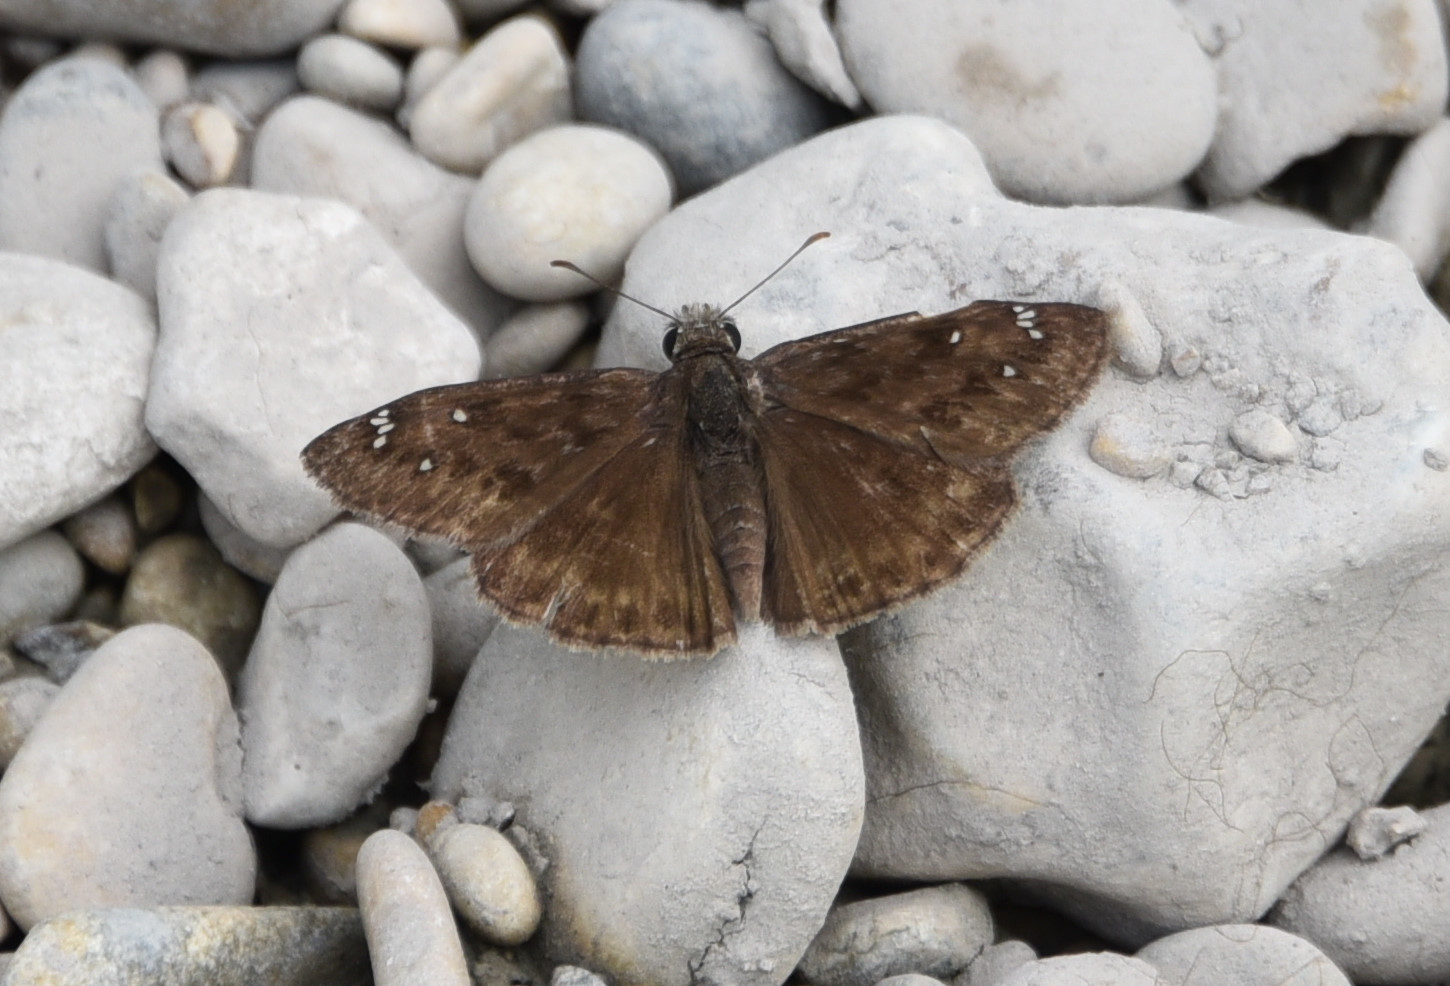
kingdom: Animalia
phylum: Arthropoda
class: Insecta
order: Lepidoptera
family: Hesperiidae
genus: Erynnis
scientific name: Erynnis horatius
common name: Horace's duskywing
